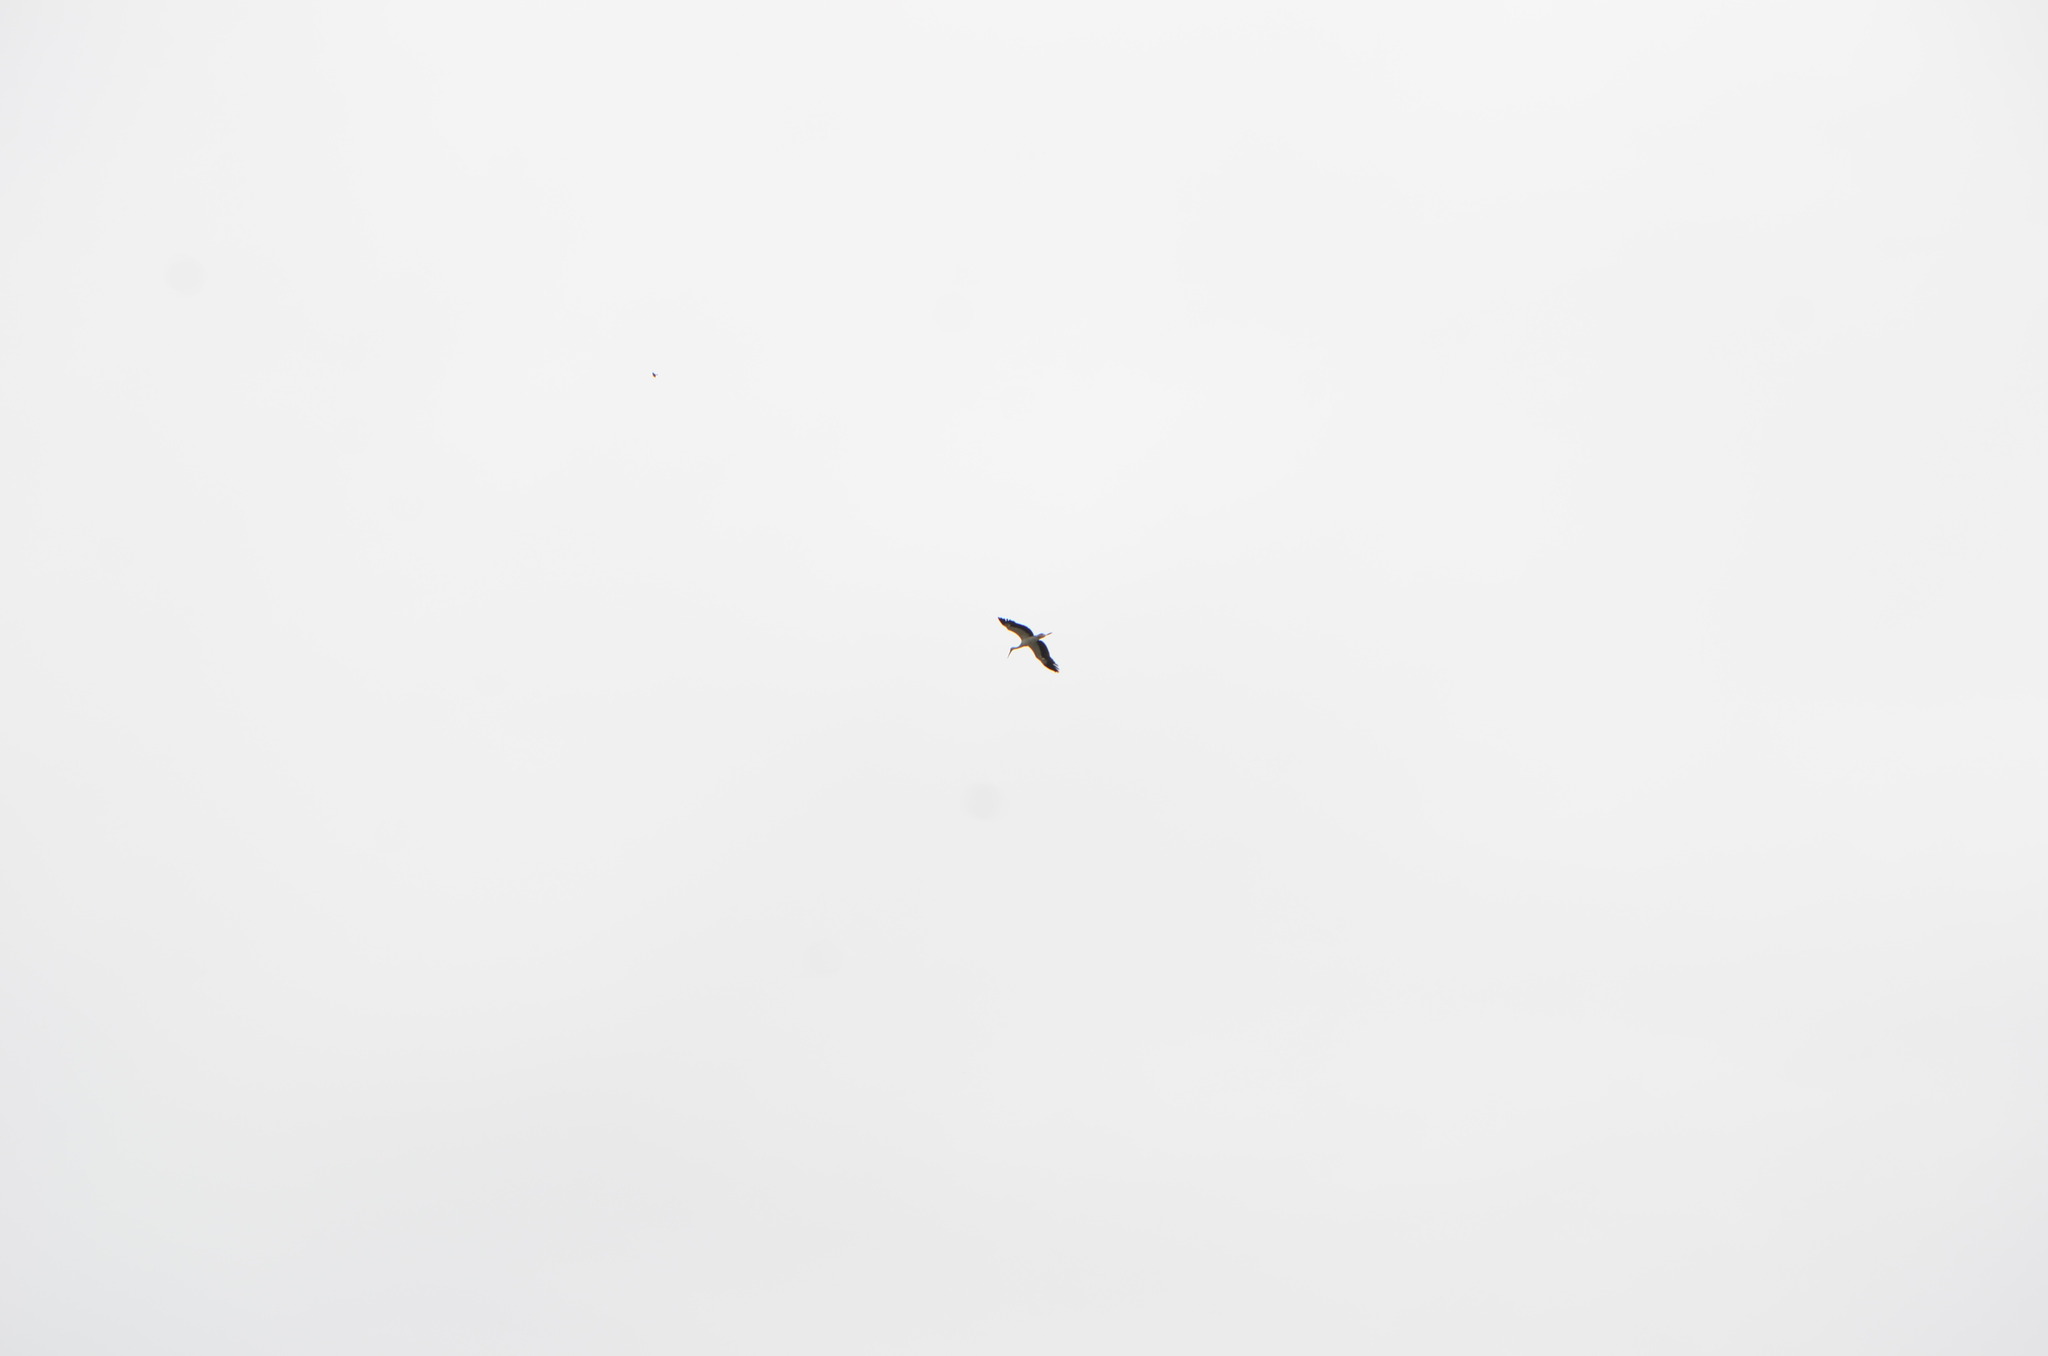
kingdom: Animalia
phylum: Chordata
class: Aves
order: Ciconiiformes
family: Ciconiidae
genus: Ciconia
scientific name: Ciconia ciconia
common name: White stork
